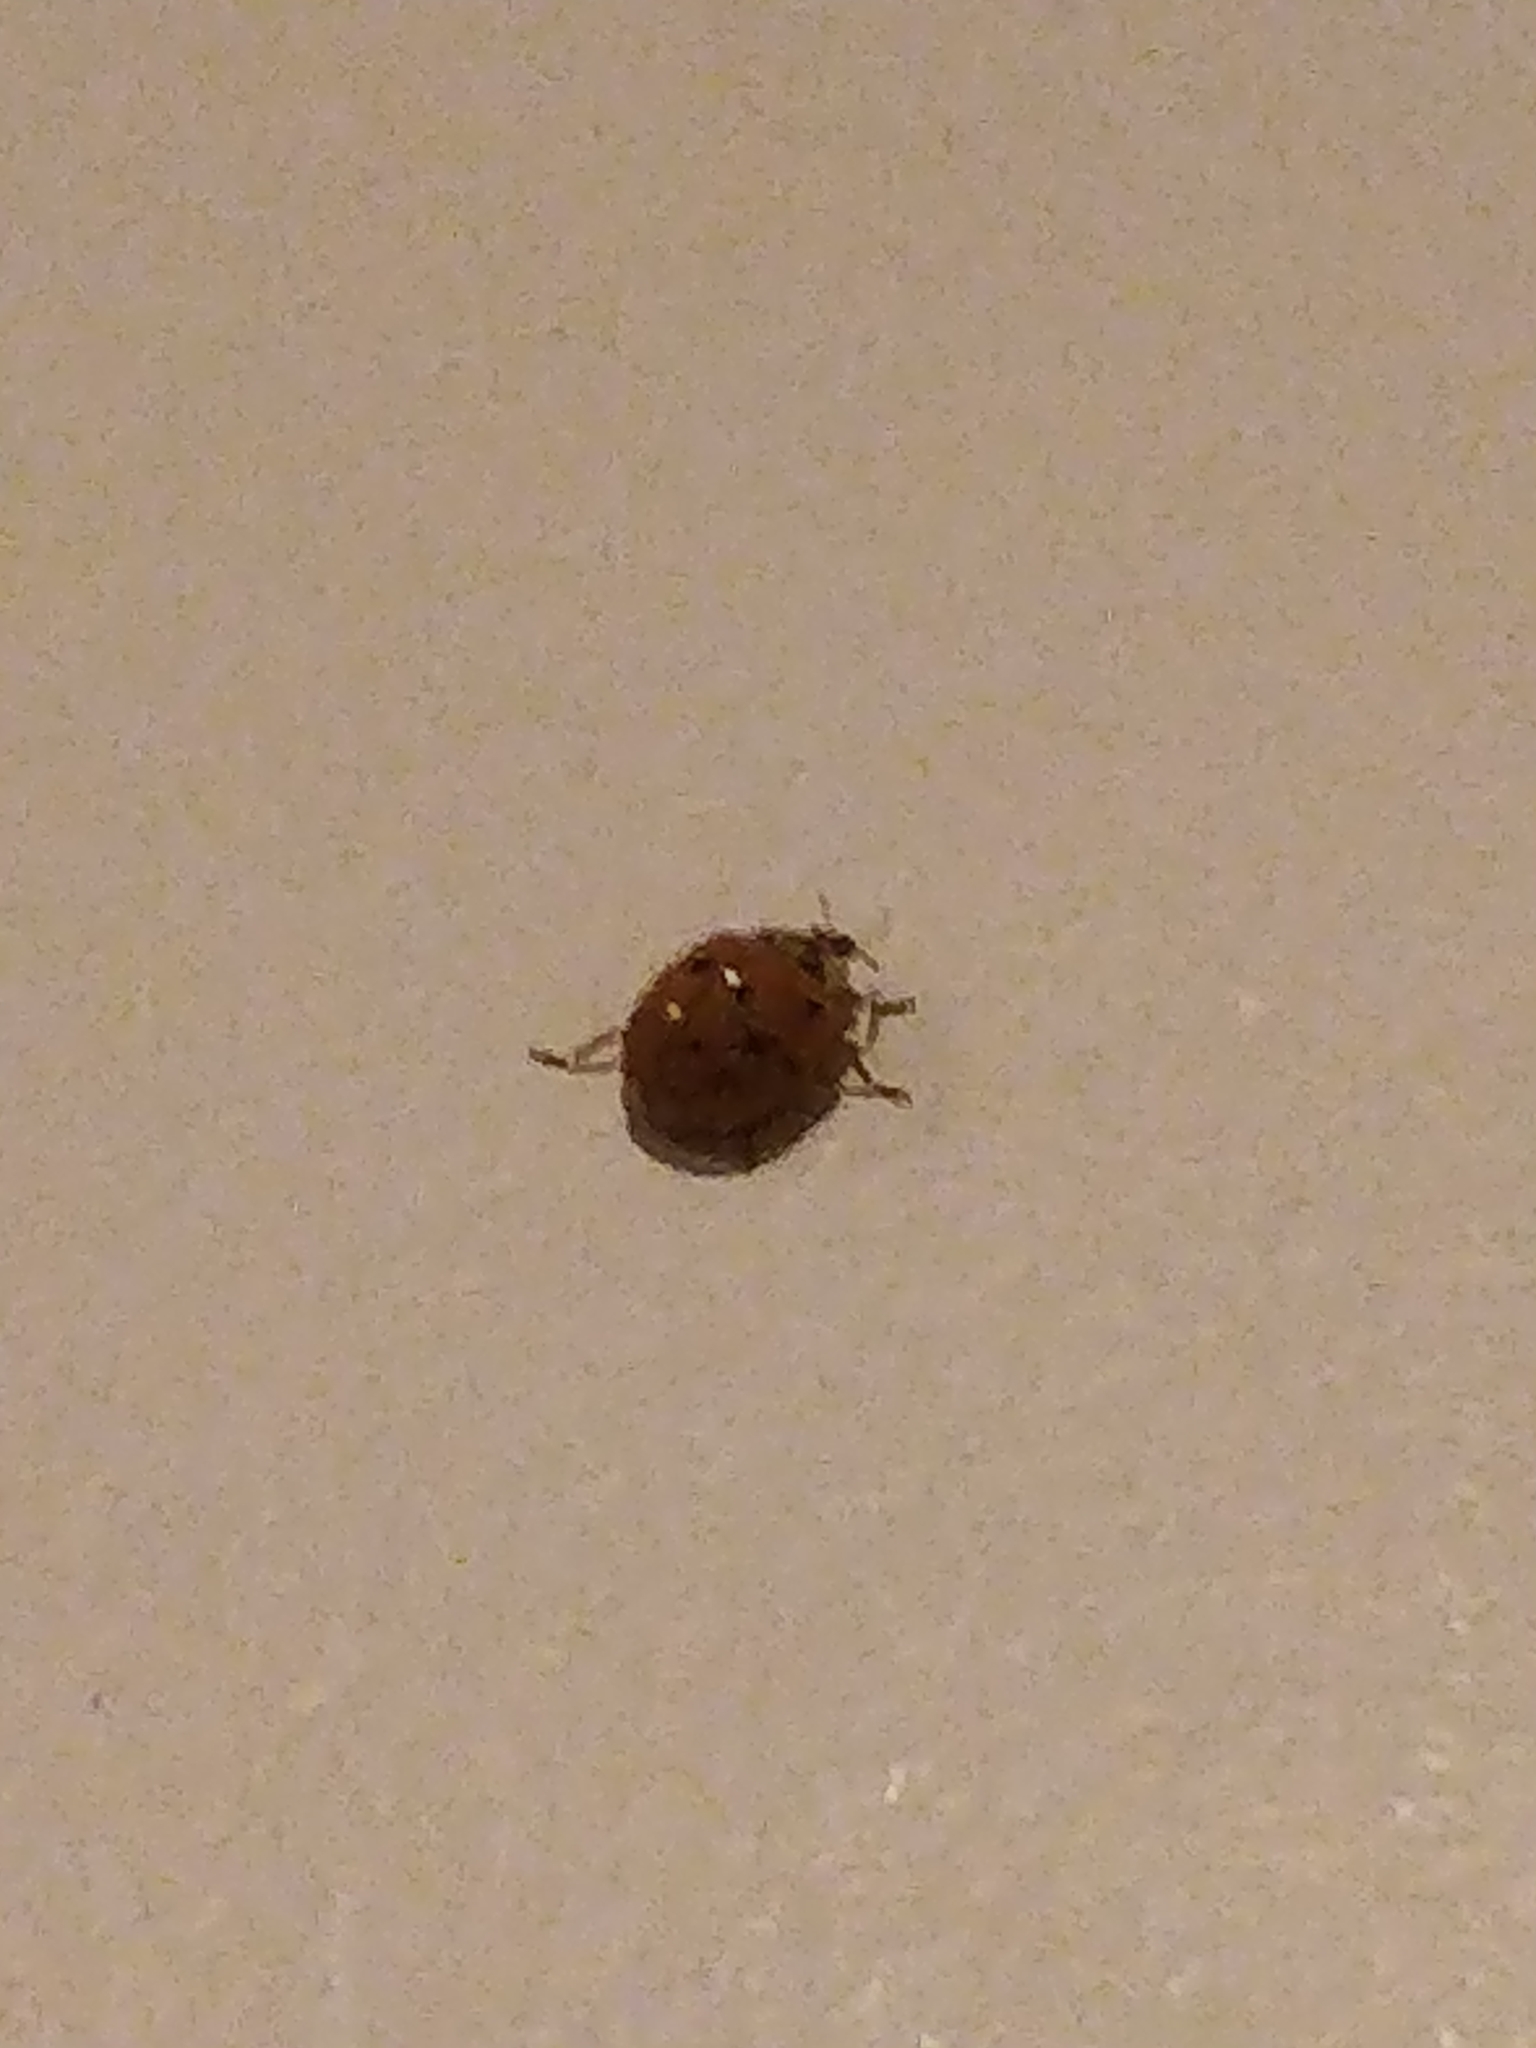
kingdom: Animalia
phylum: Arthropoda
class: Insecta
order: Coleoptera
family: Coccinellidae
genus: Harmonia
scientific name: Harmonia axyridis
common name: Harlequin ladybird
